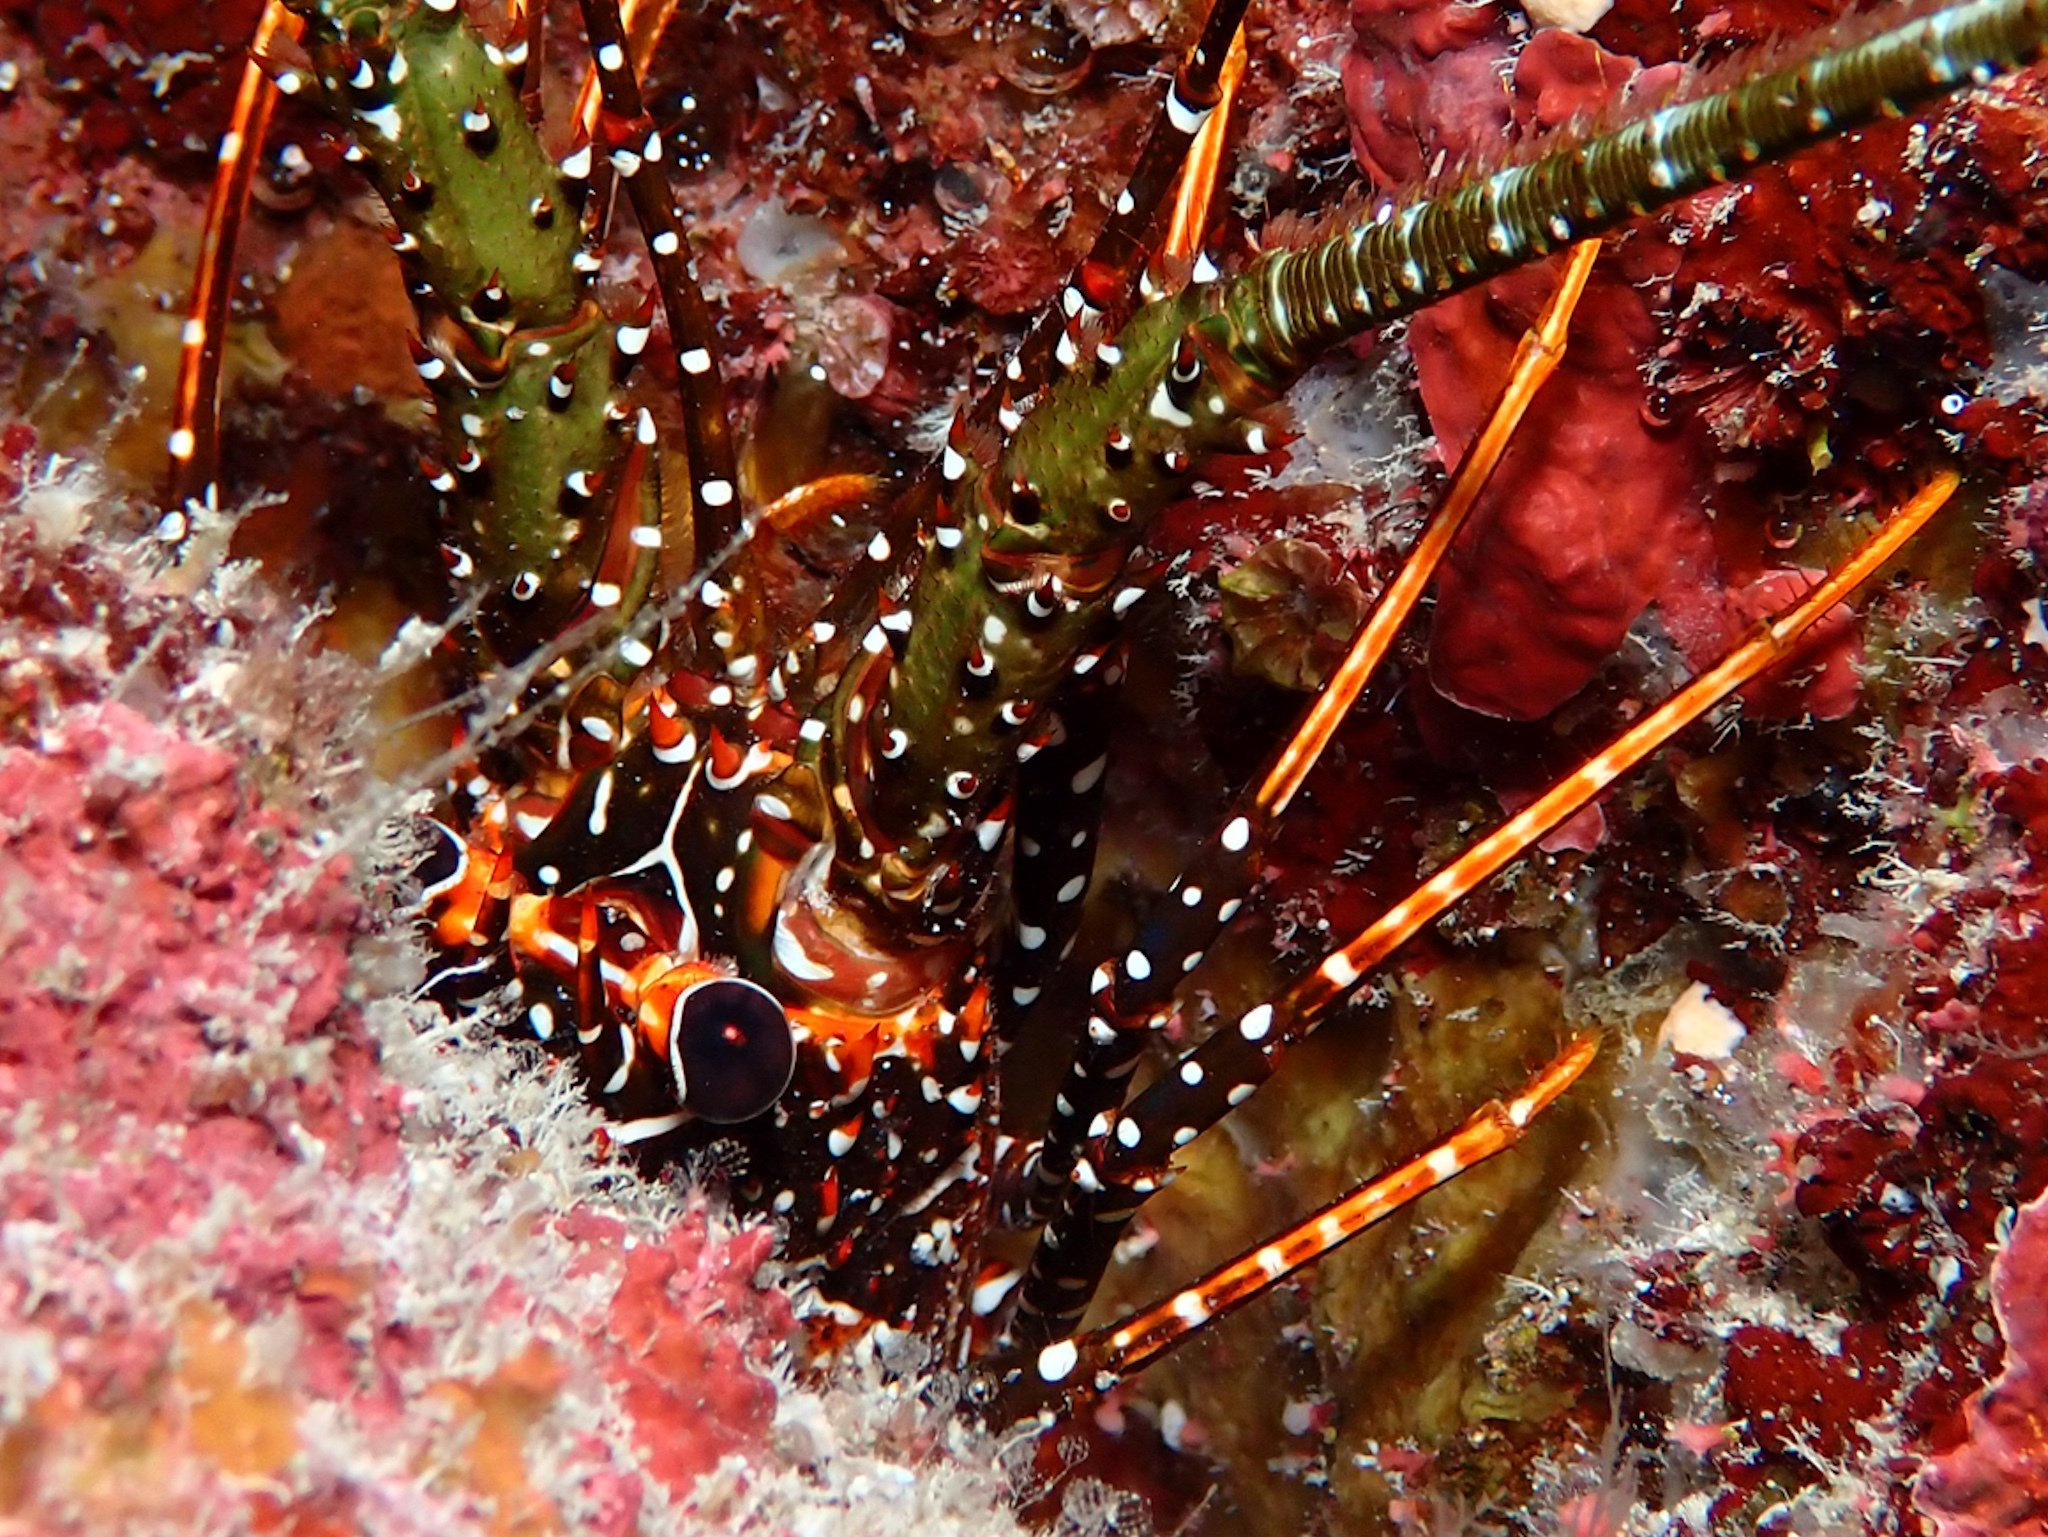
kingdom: Animalia
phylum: Arthropoda
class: Malacostraca
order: Decapoda
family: Palinuridae
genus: Panulirus
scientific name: Panulirus guttatus
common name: Spotted spiny lobster
